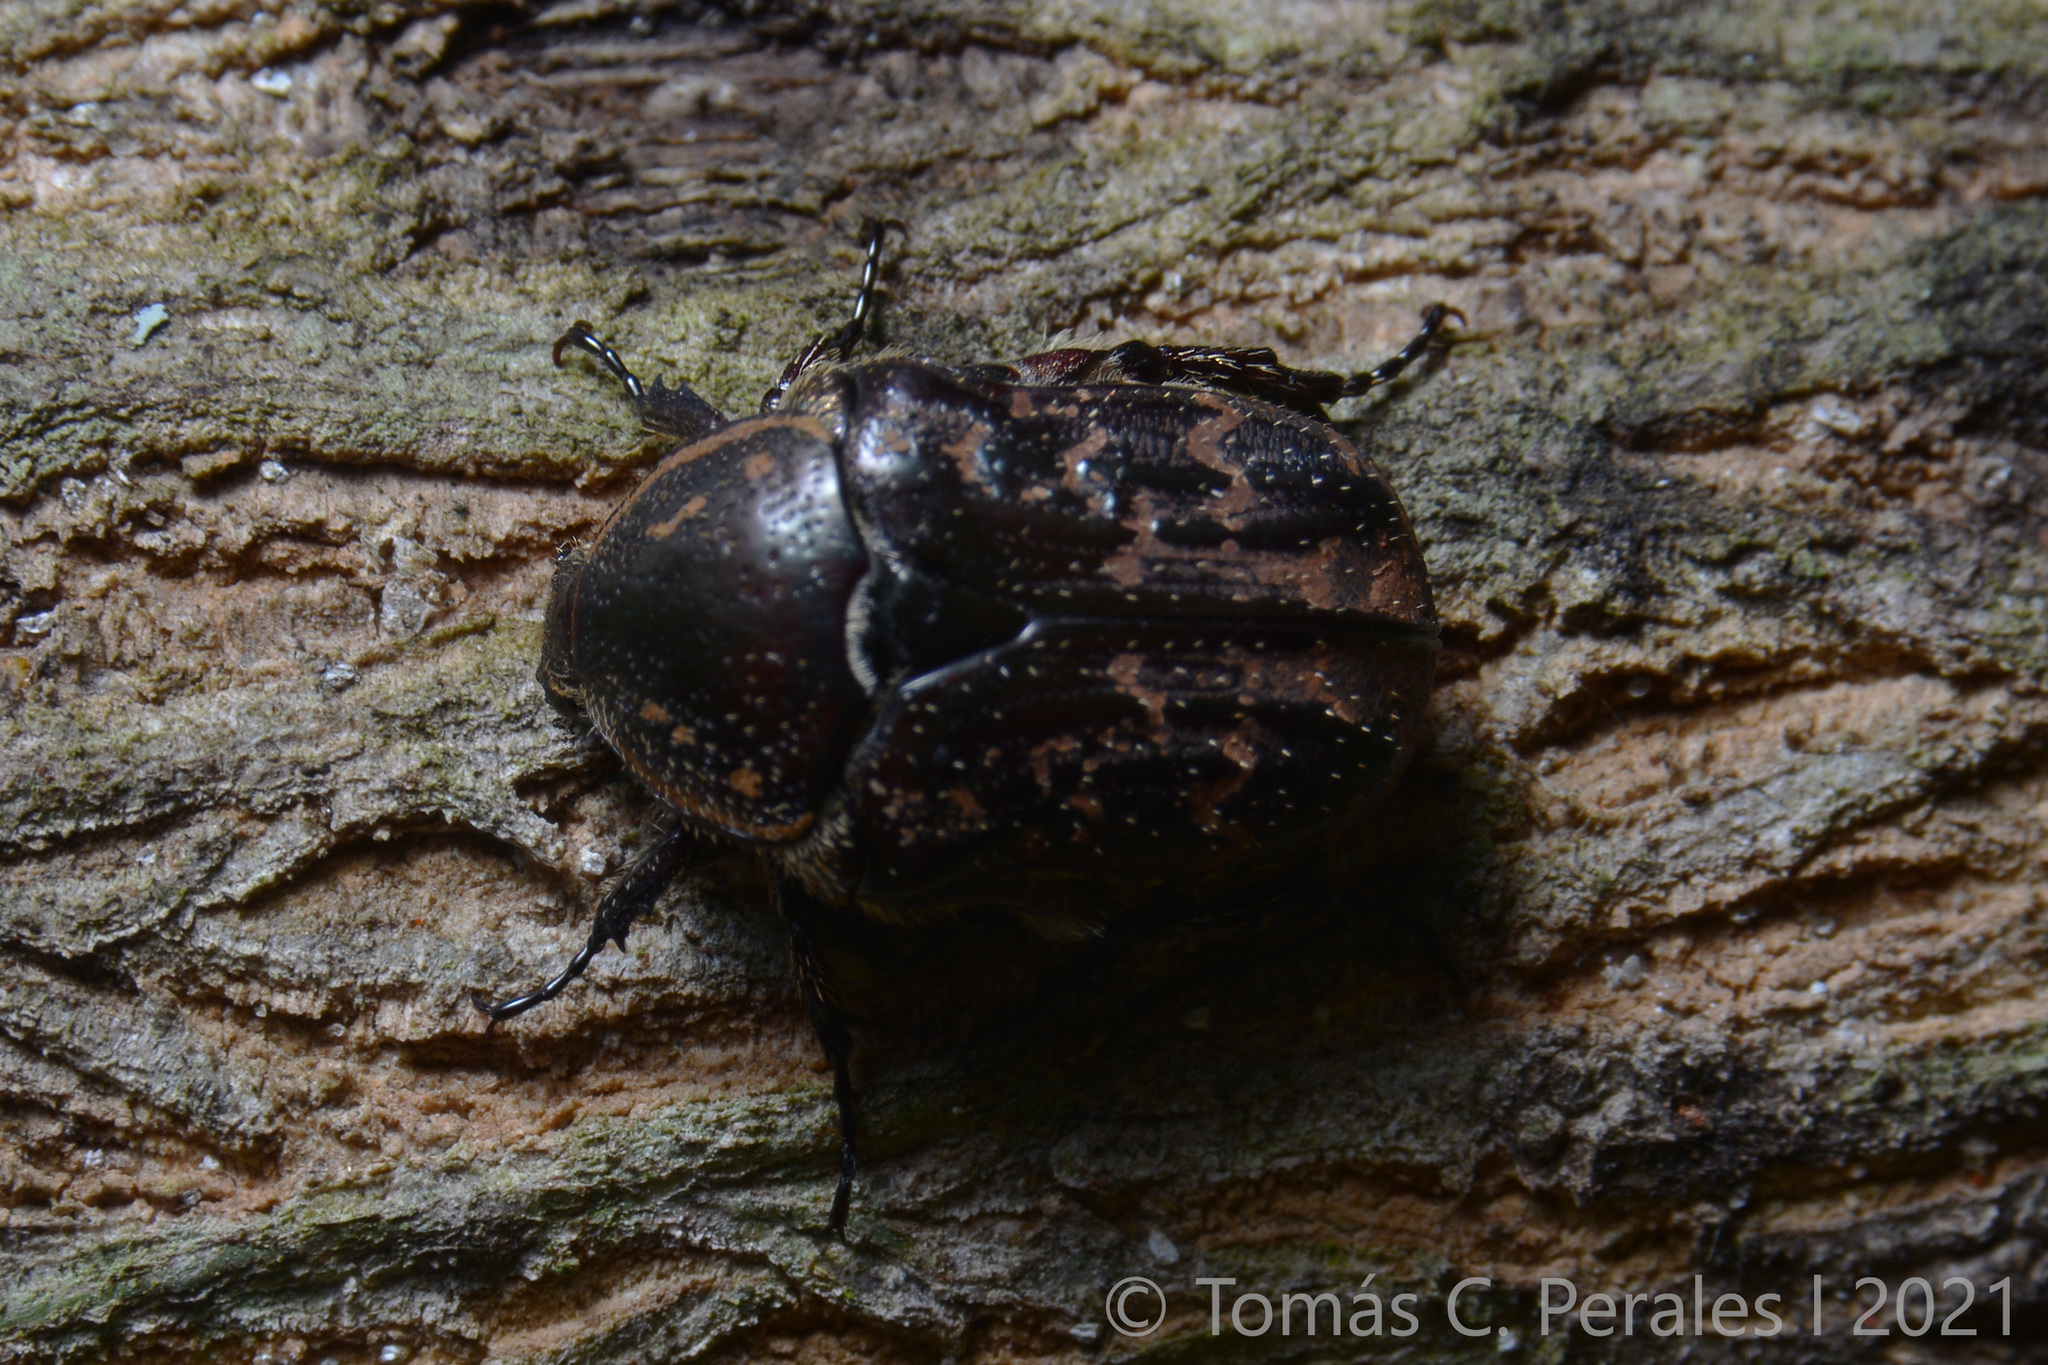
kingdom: Animalia
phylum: Arthropoda
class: Insecta
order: Coleoptera
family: Scarabaeidae
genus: Euphoria
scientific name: Euphoria lurida
